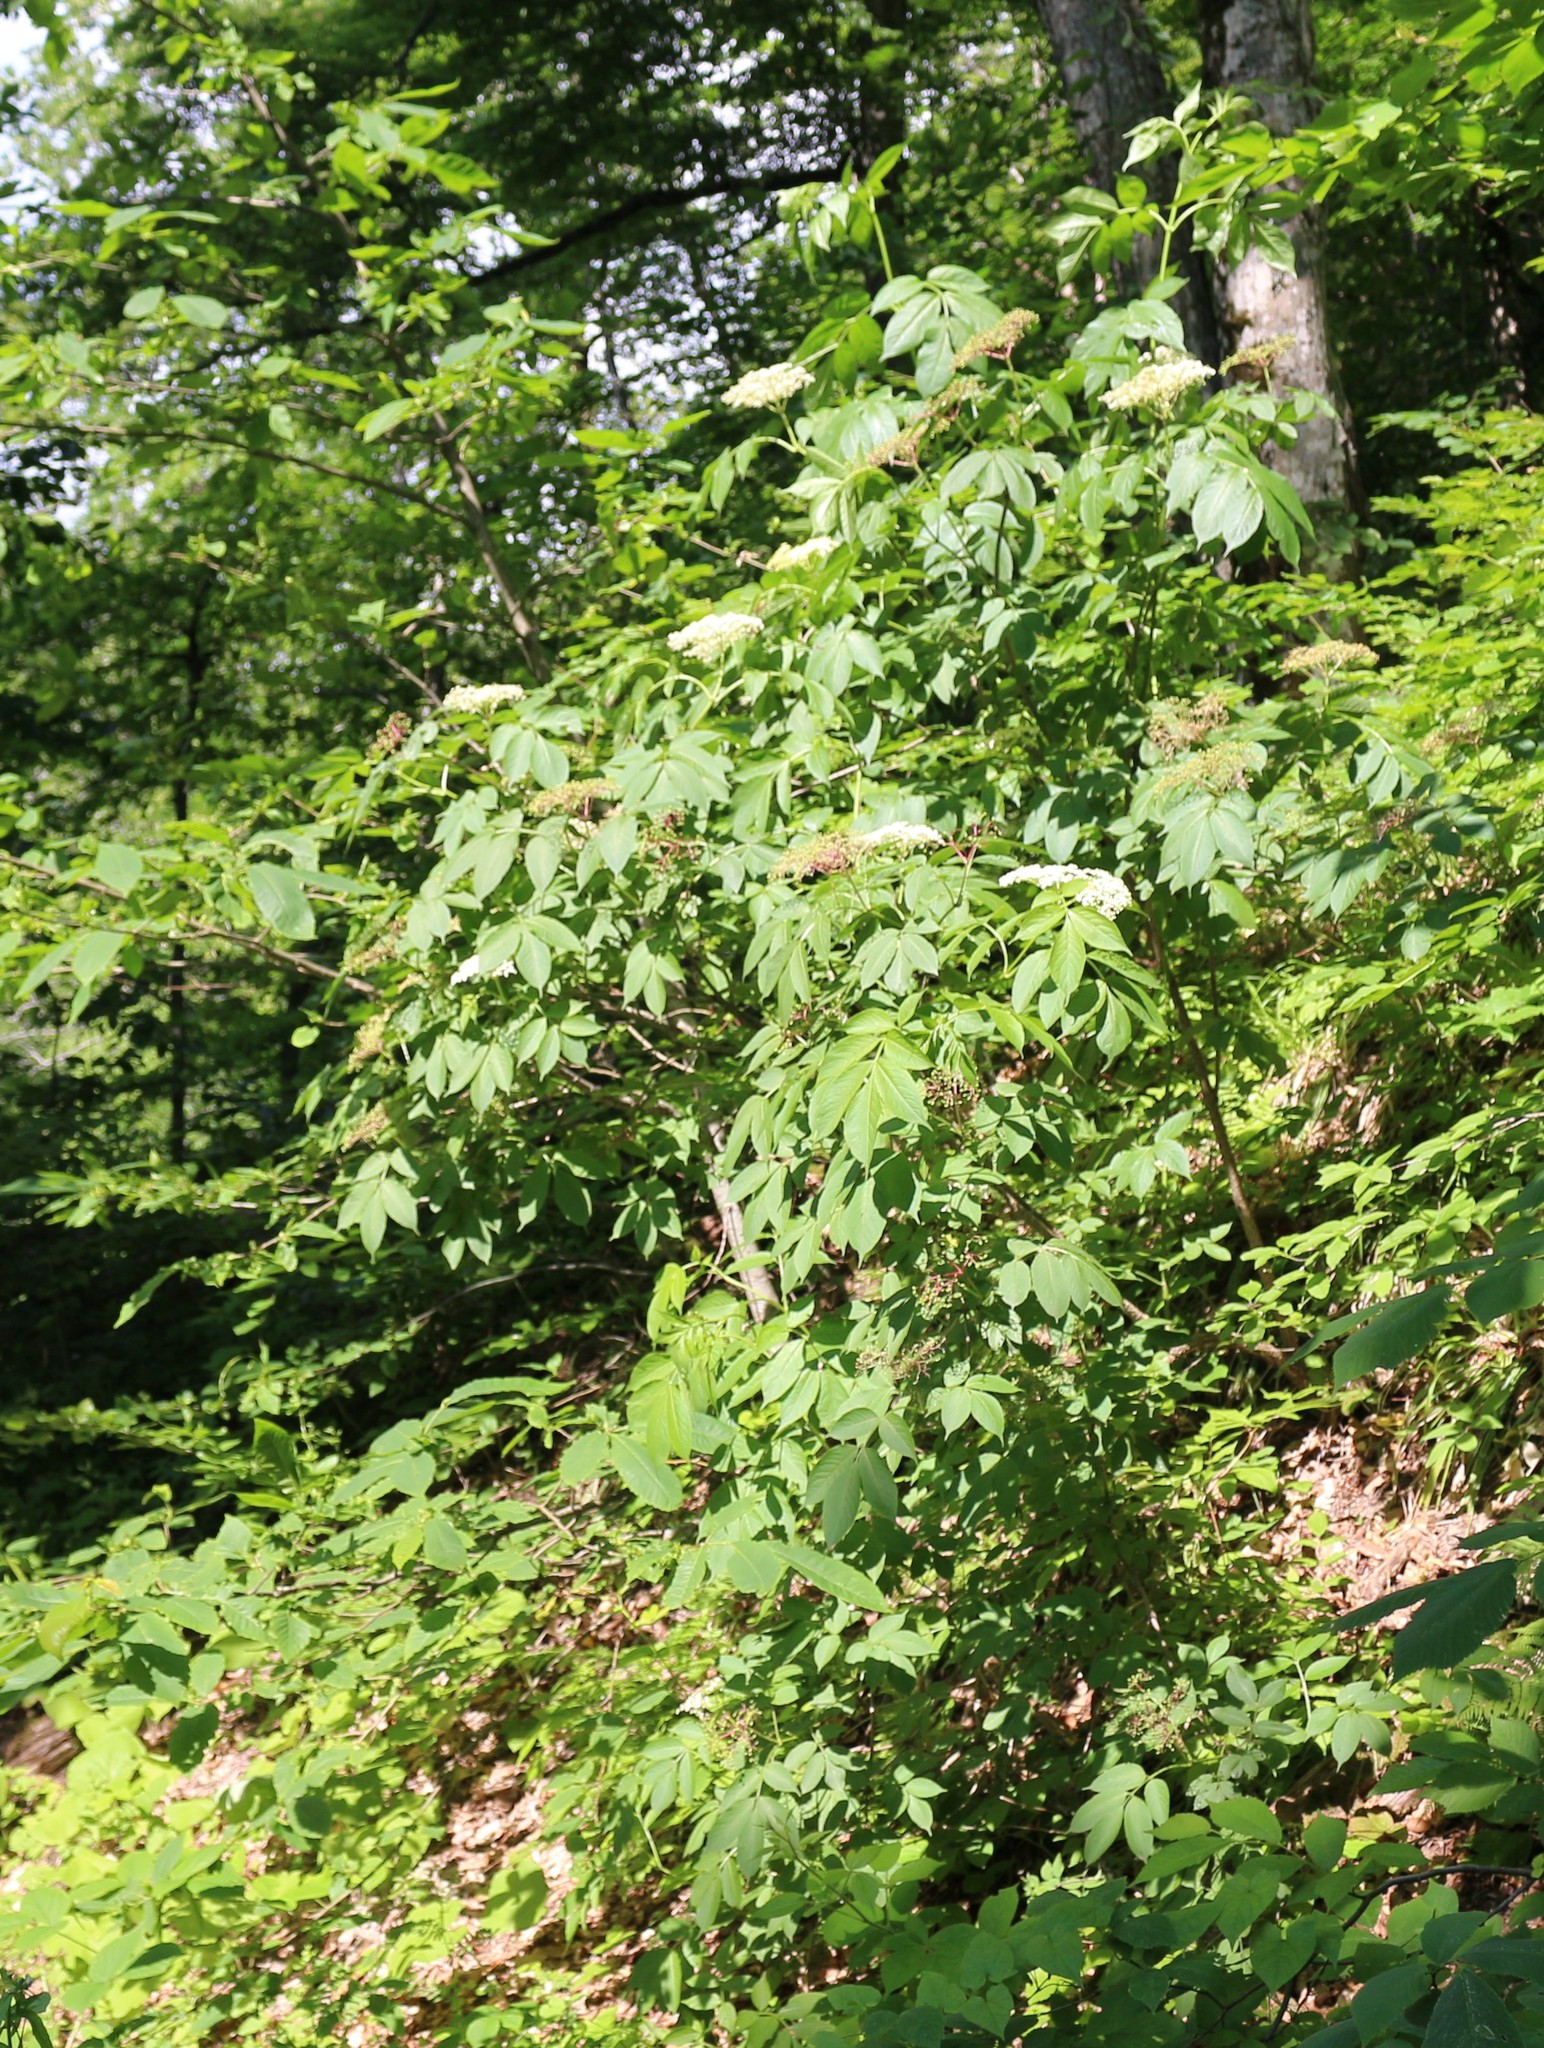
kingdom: Plantae
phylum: Tracheophyta
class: Magnoliopsida
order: Dipsacales
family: Viburnaceae
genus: Sambucus
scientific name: Sambucus nigra
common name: Elder
